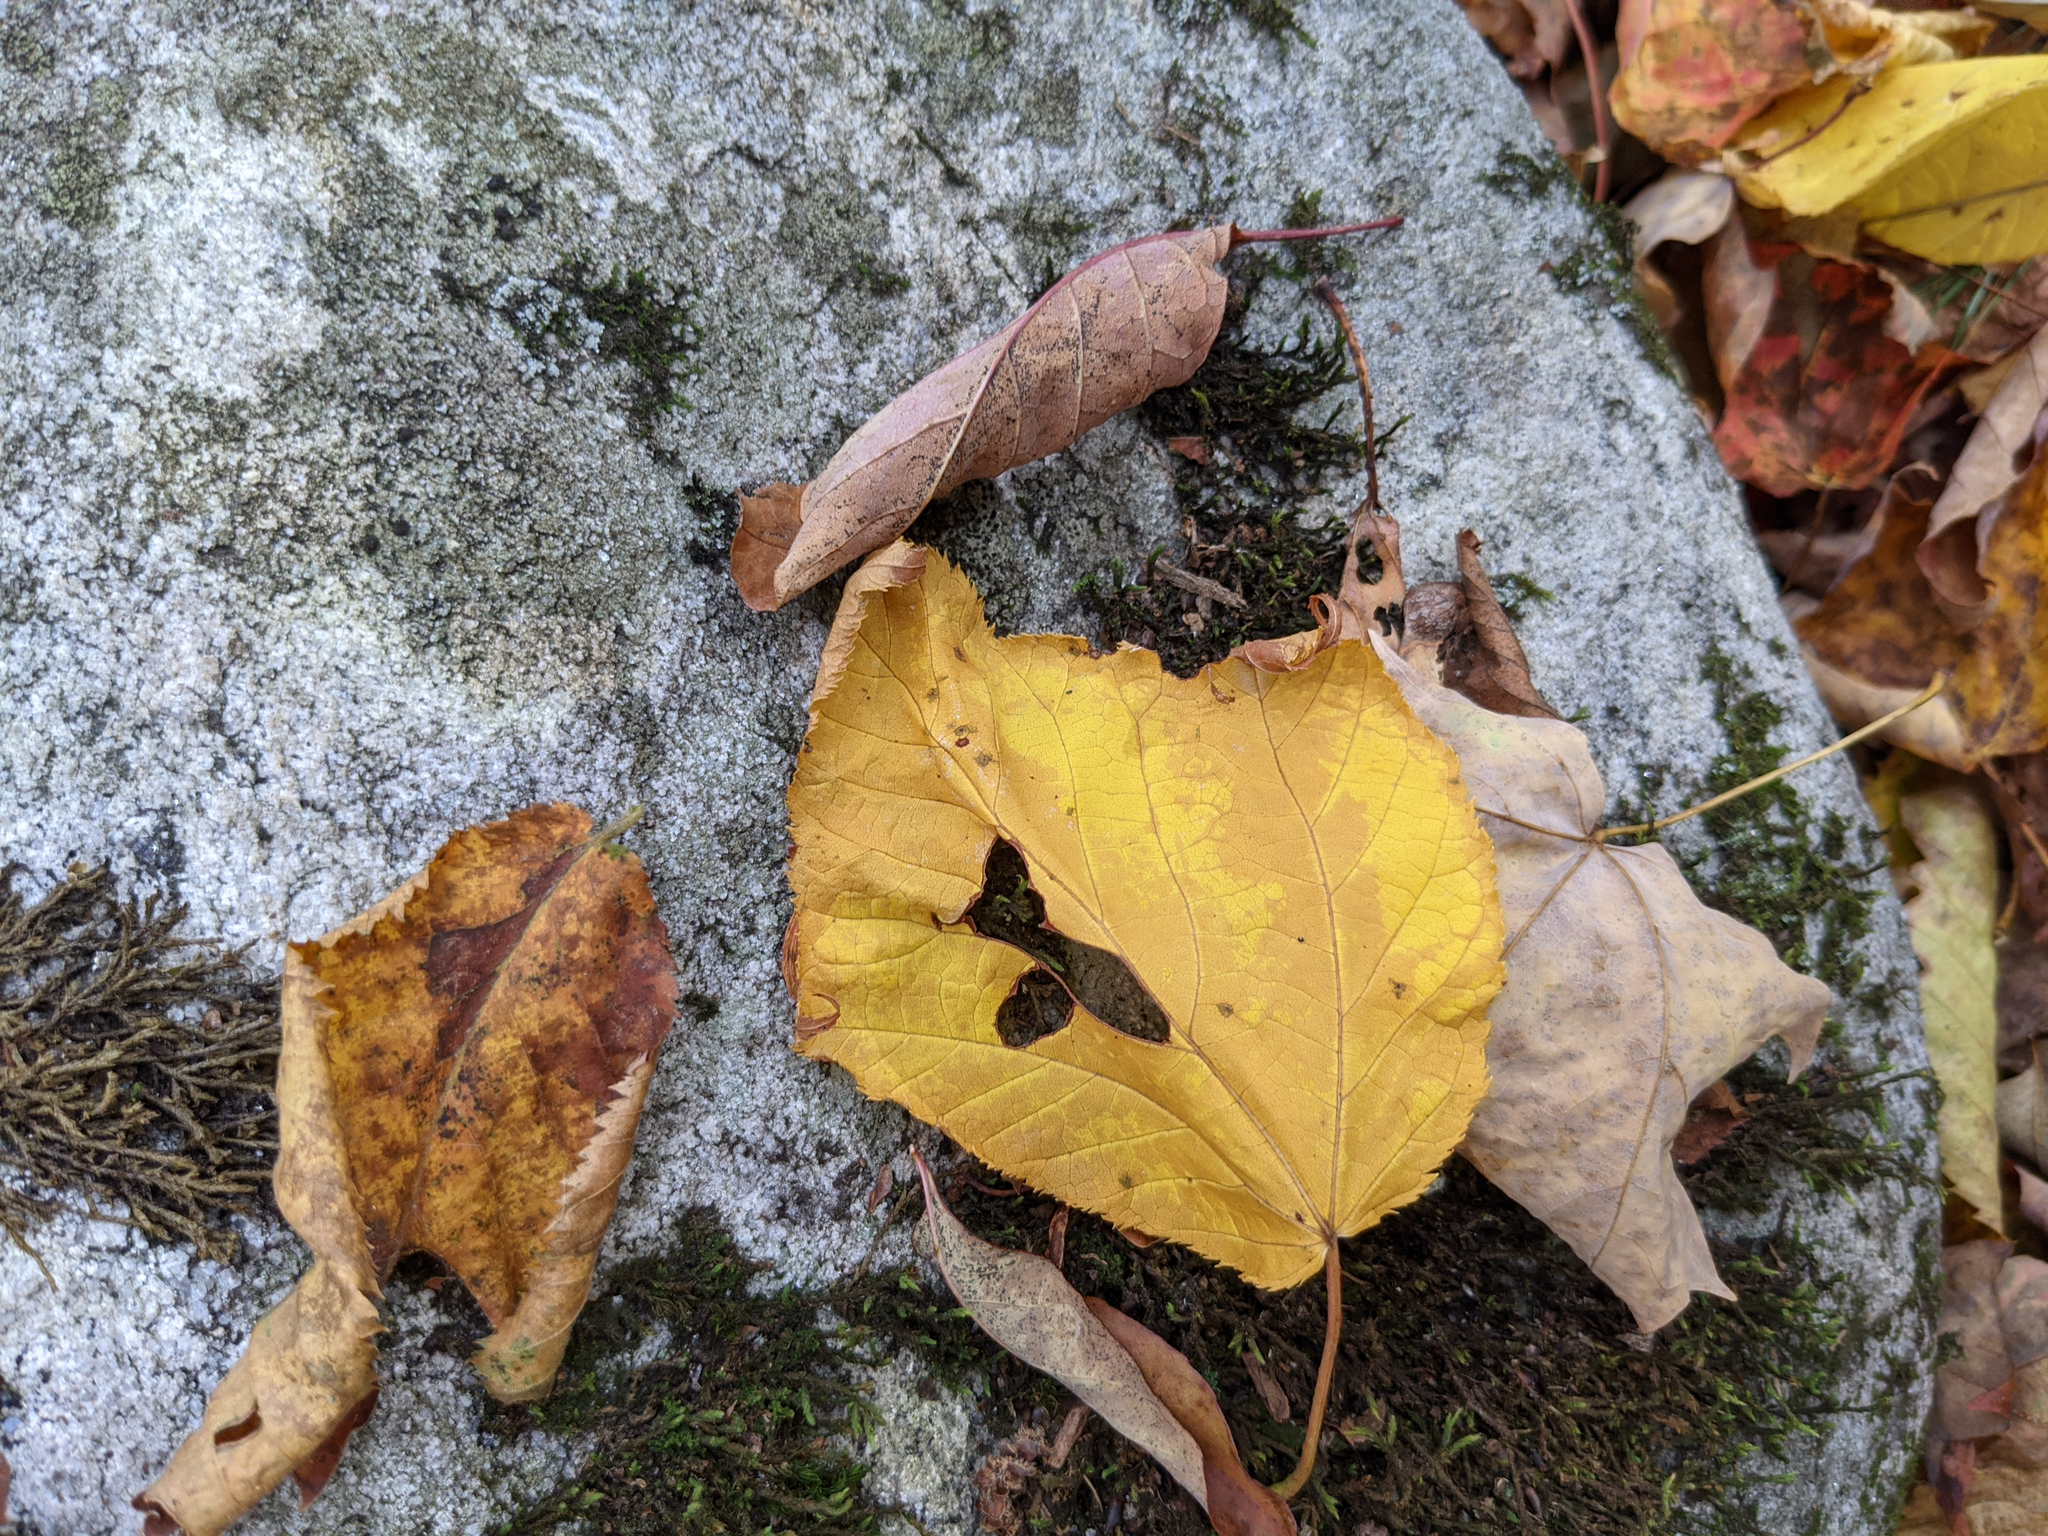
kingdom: Plantae
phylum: Tracheophyta
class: Magnoliopsida
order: Sapindales
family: Sapindaceae
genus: Acer
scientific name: Acer pensylvanicum
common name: Moosewood
